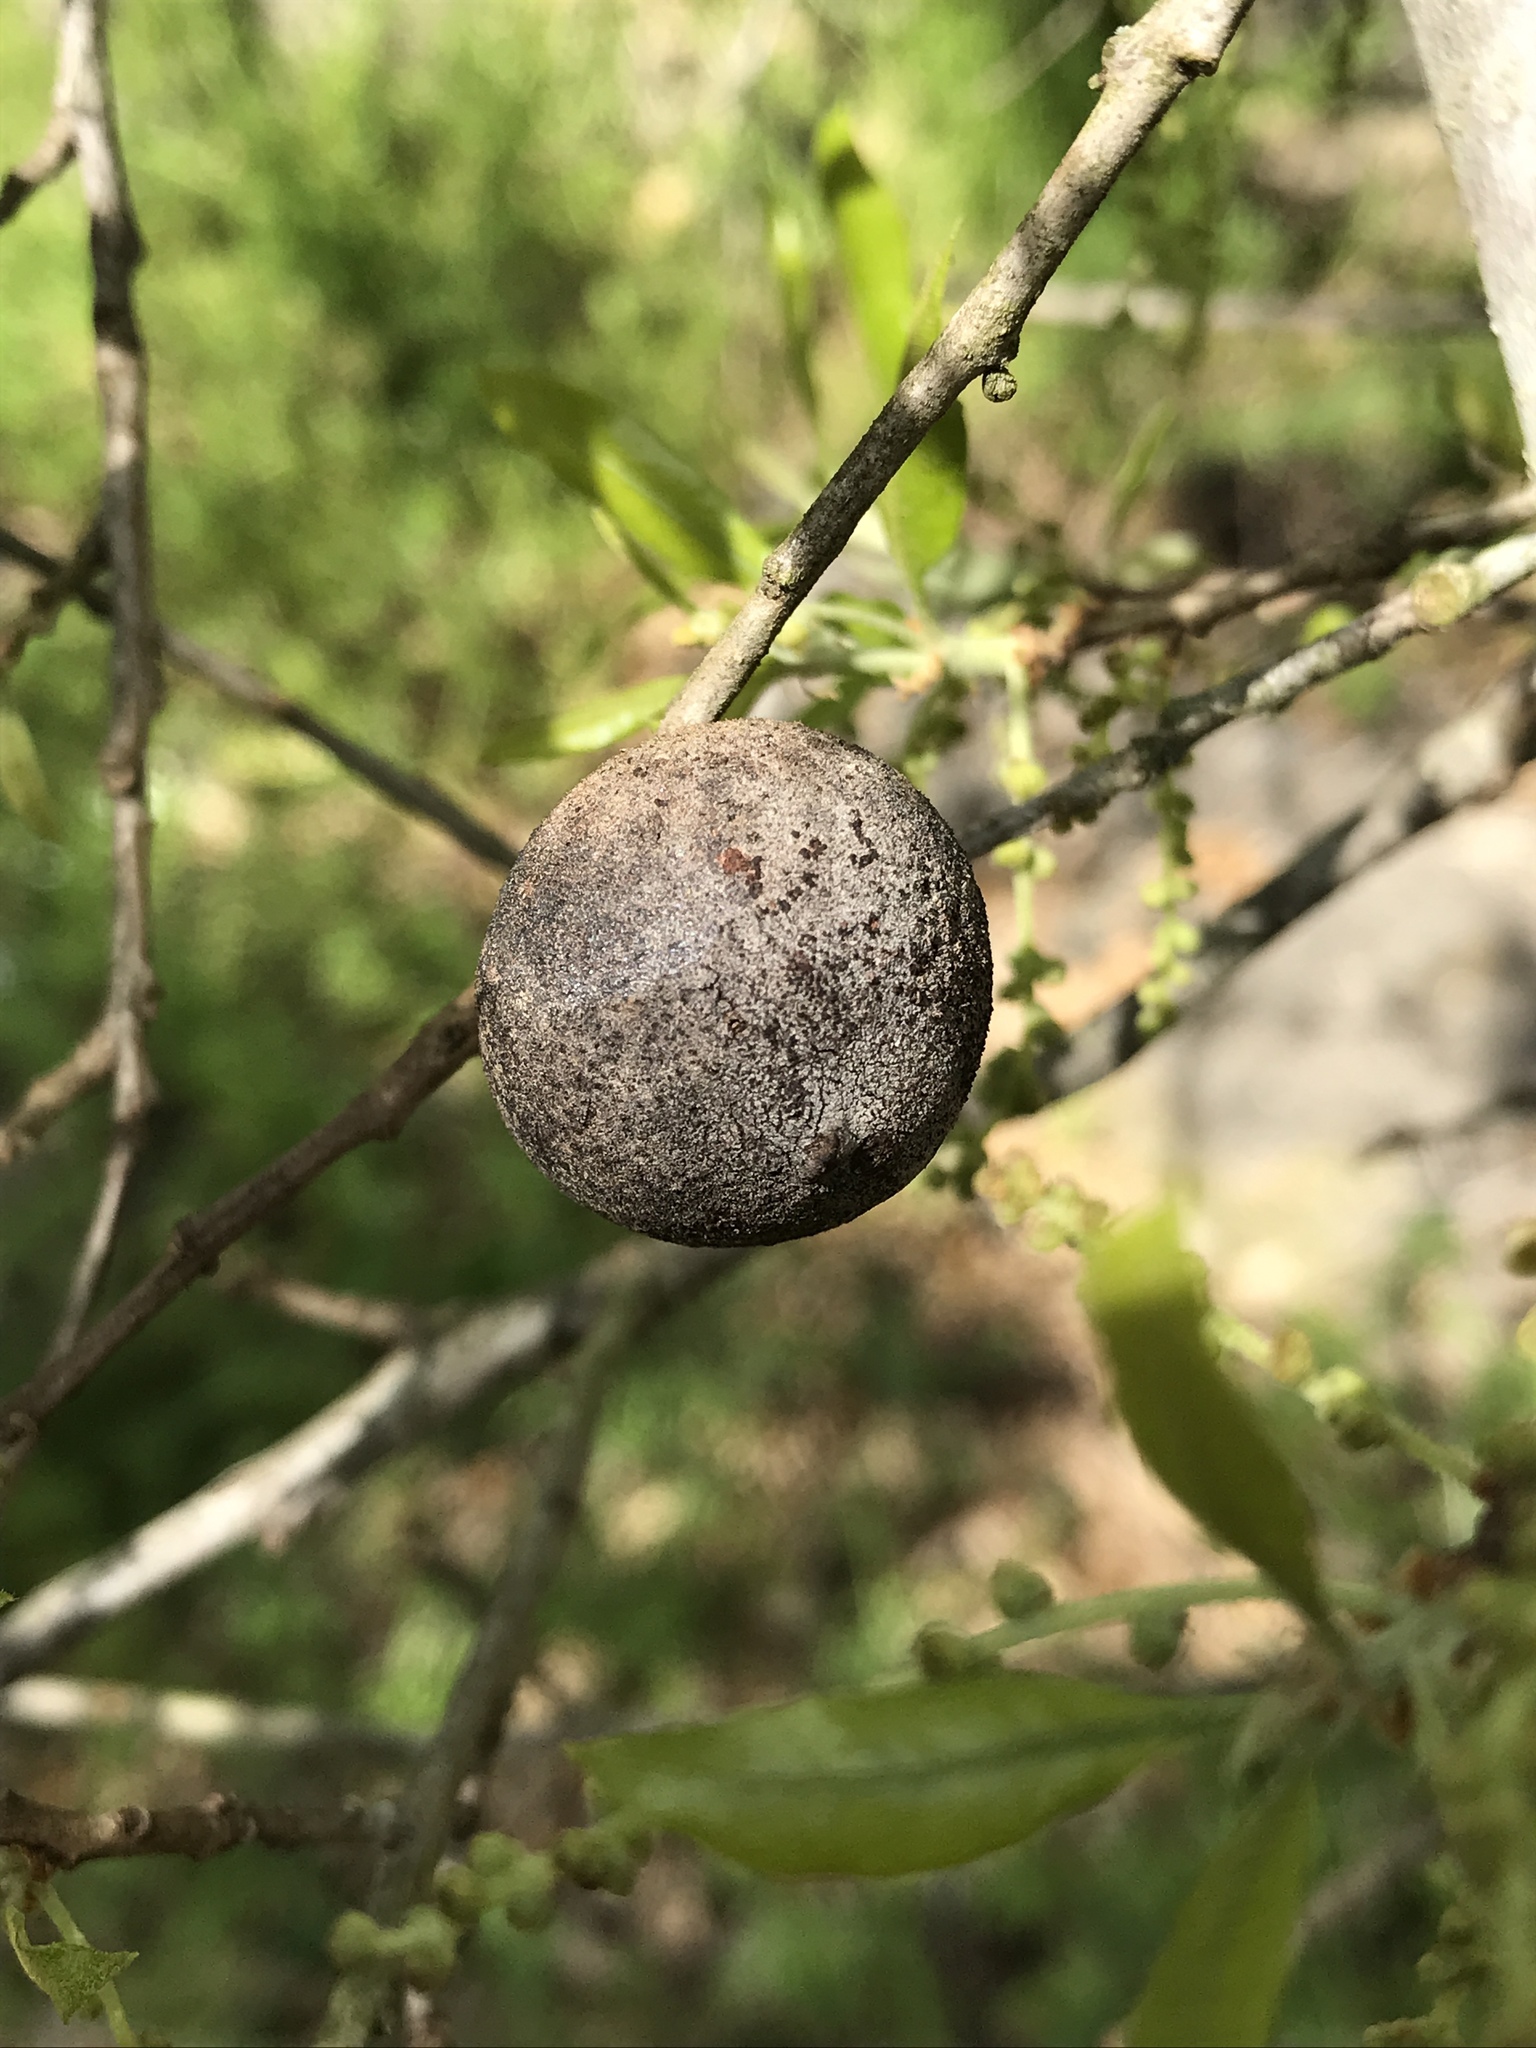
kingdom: Animalia
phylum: Arthropoda
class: Insecta
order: Hymenoptera
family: Cynipidae
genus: Disholcaspis
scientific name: Disholcaspis
